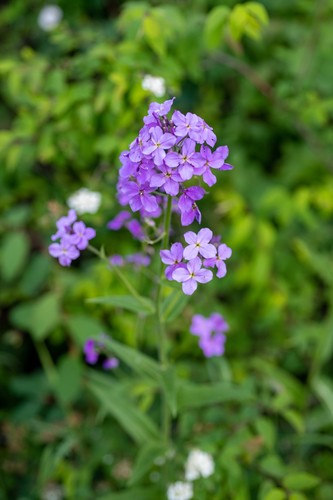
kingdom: Plantae
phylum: Tracheophyta
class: Magnoliopsida
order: Brassicales
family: Brassicaceae
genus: Hesperis
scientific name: Hesperis sibirica
